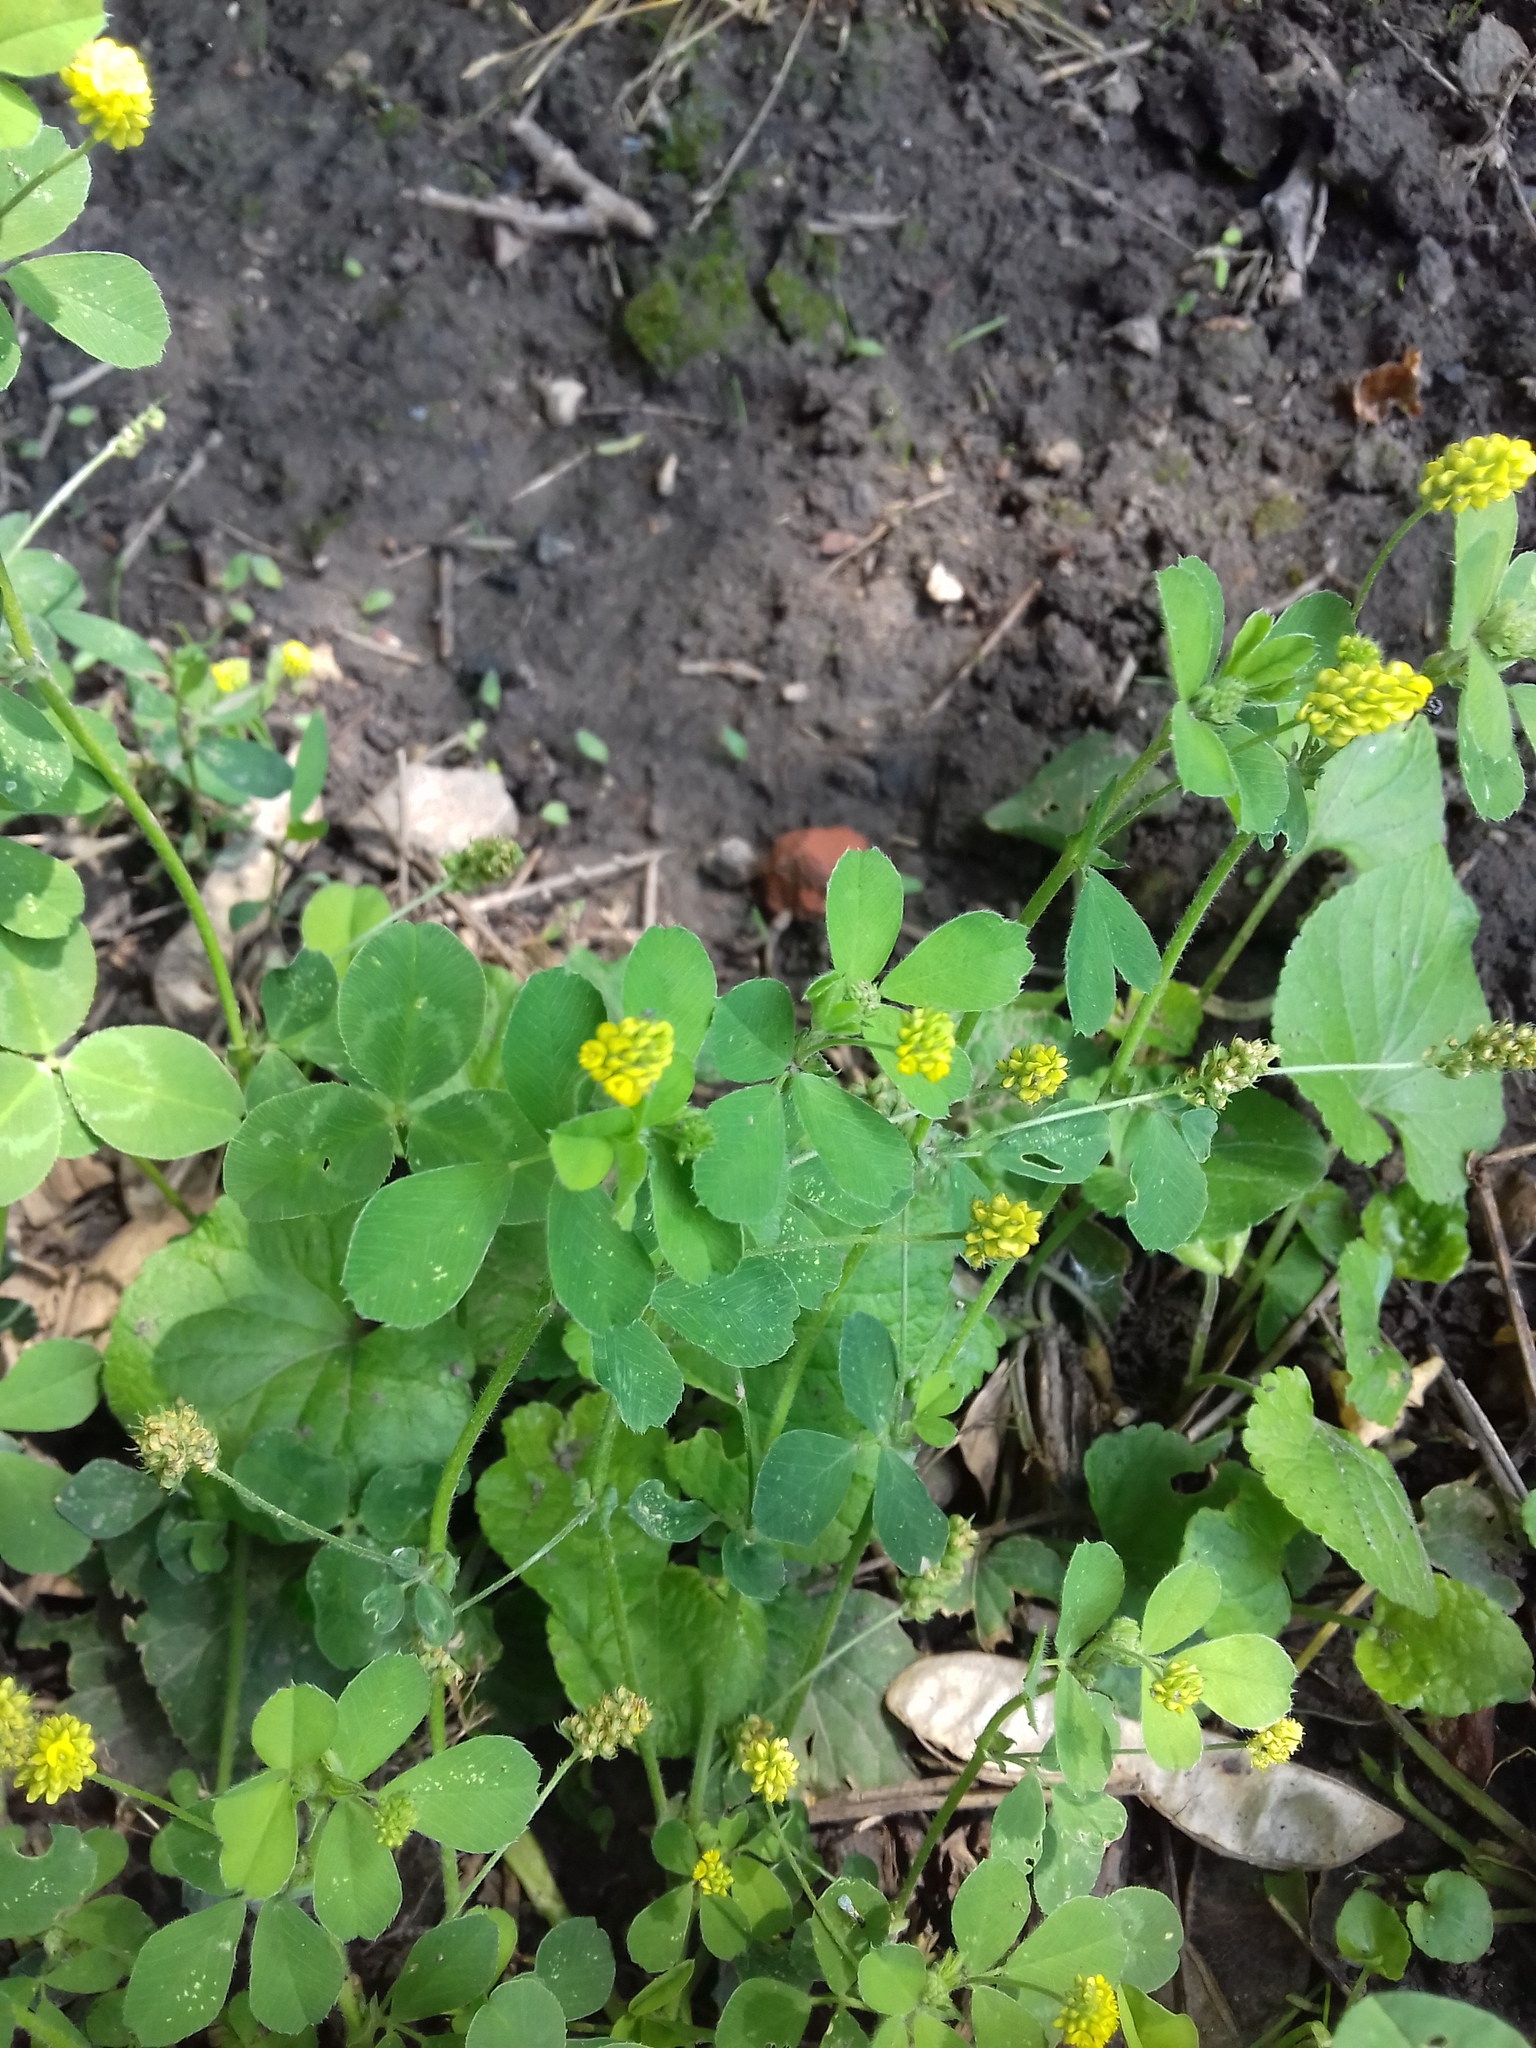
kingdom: Plantae
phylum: Tracheophyta
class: Magnoliopsida
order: Fabales
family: Fabaceae
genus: Medicago
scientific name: Medicago lupulina
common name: Black medick
